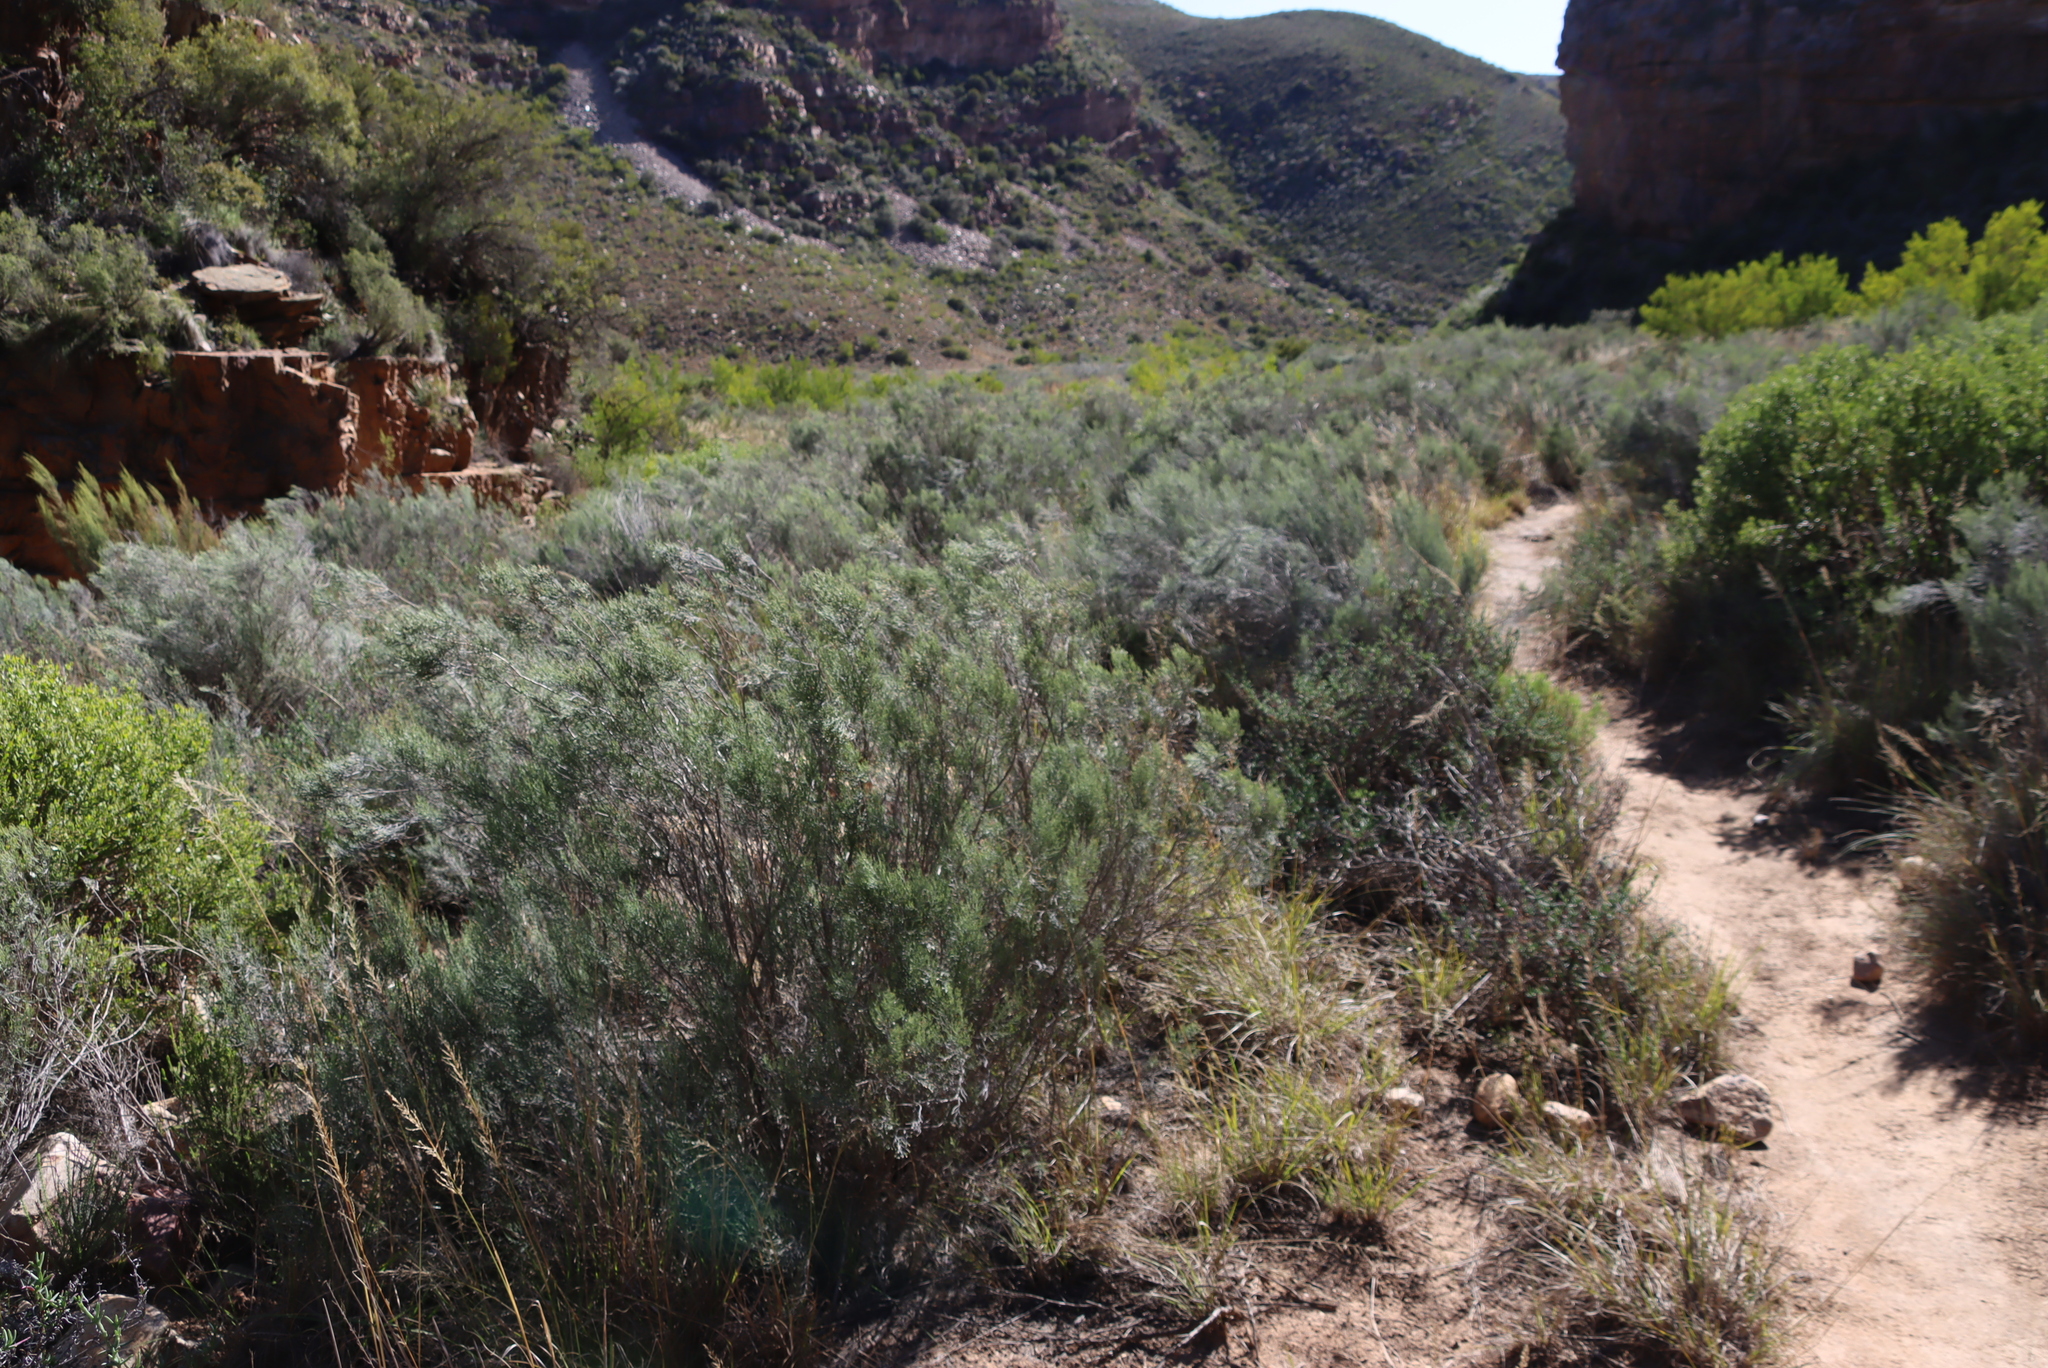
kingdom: Plantae
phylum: Tracheophyta
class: Magnoliopsida
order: Asterales
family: Asteraceae
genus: Dicerothamnus
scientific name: Dicerothamnus rhinocerotis
